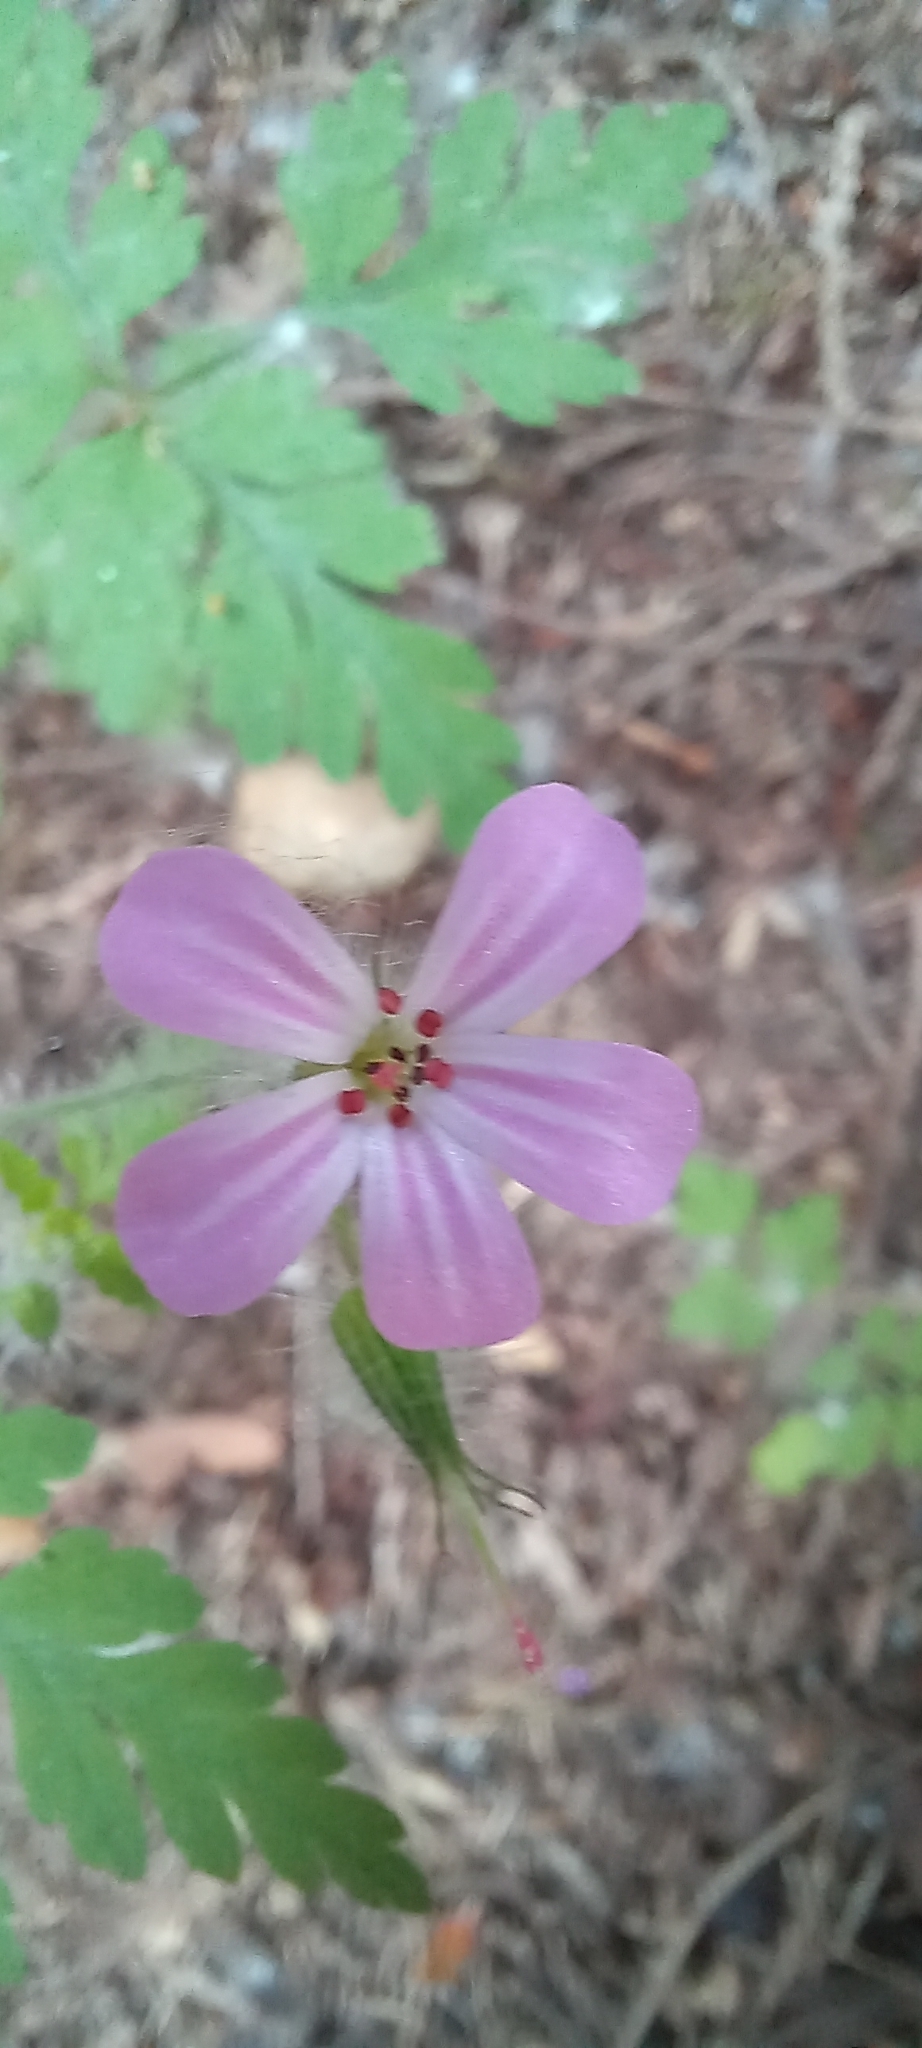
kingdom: Plantae
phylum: Tracheophyta
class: Magnoliopsida
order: Geraniales
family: Geraniaceae
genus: Geranium
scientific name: Geranium robertianum
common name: Herb-robert
